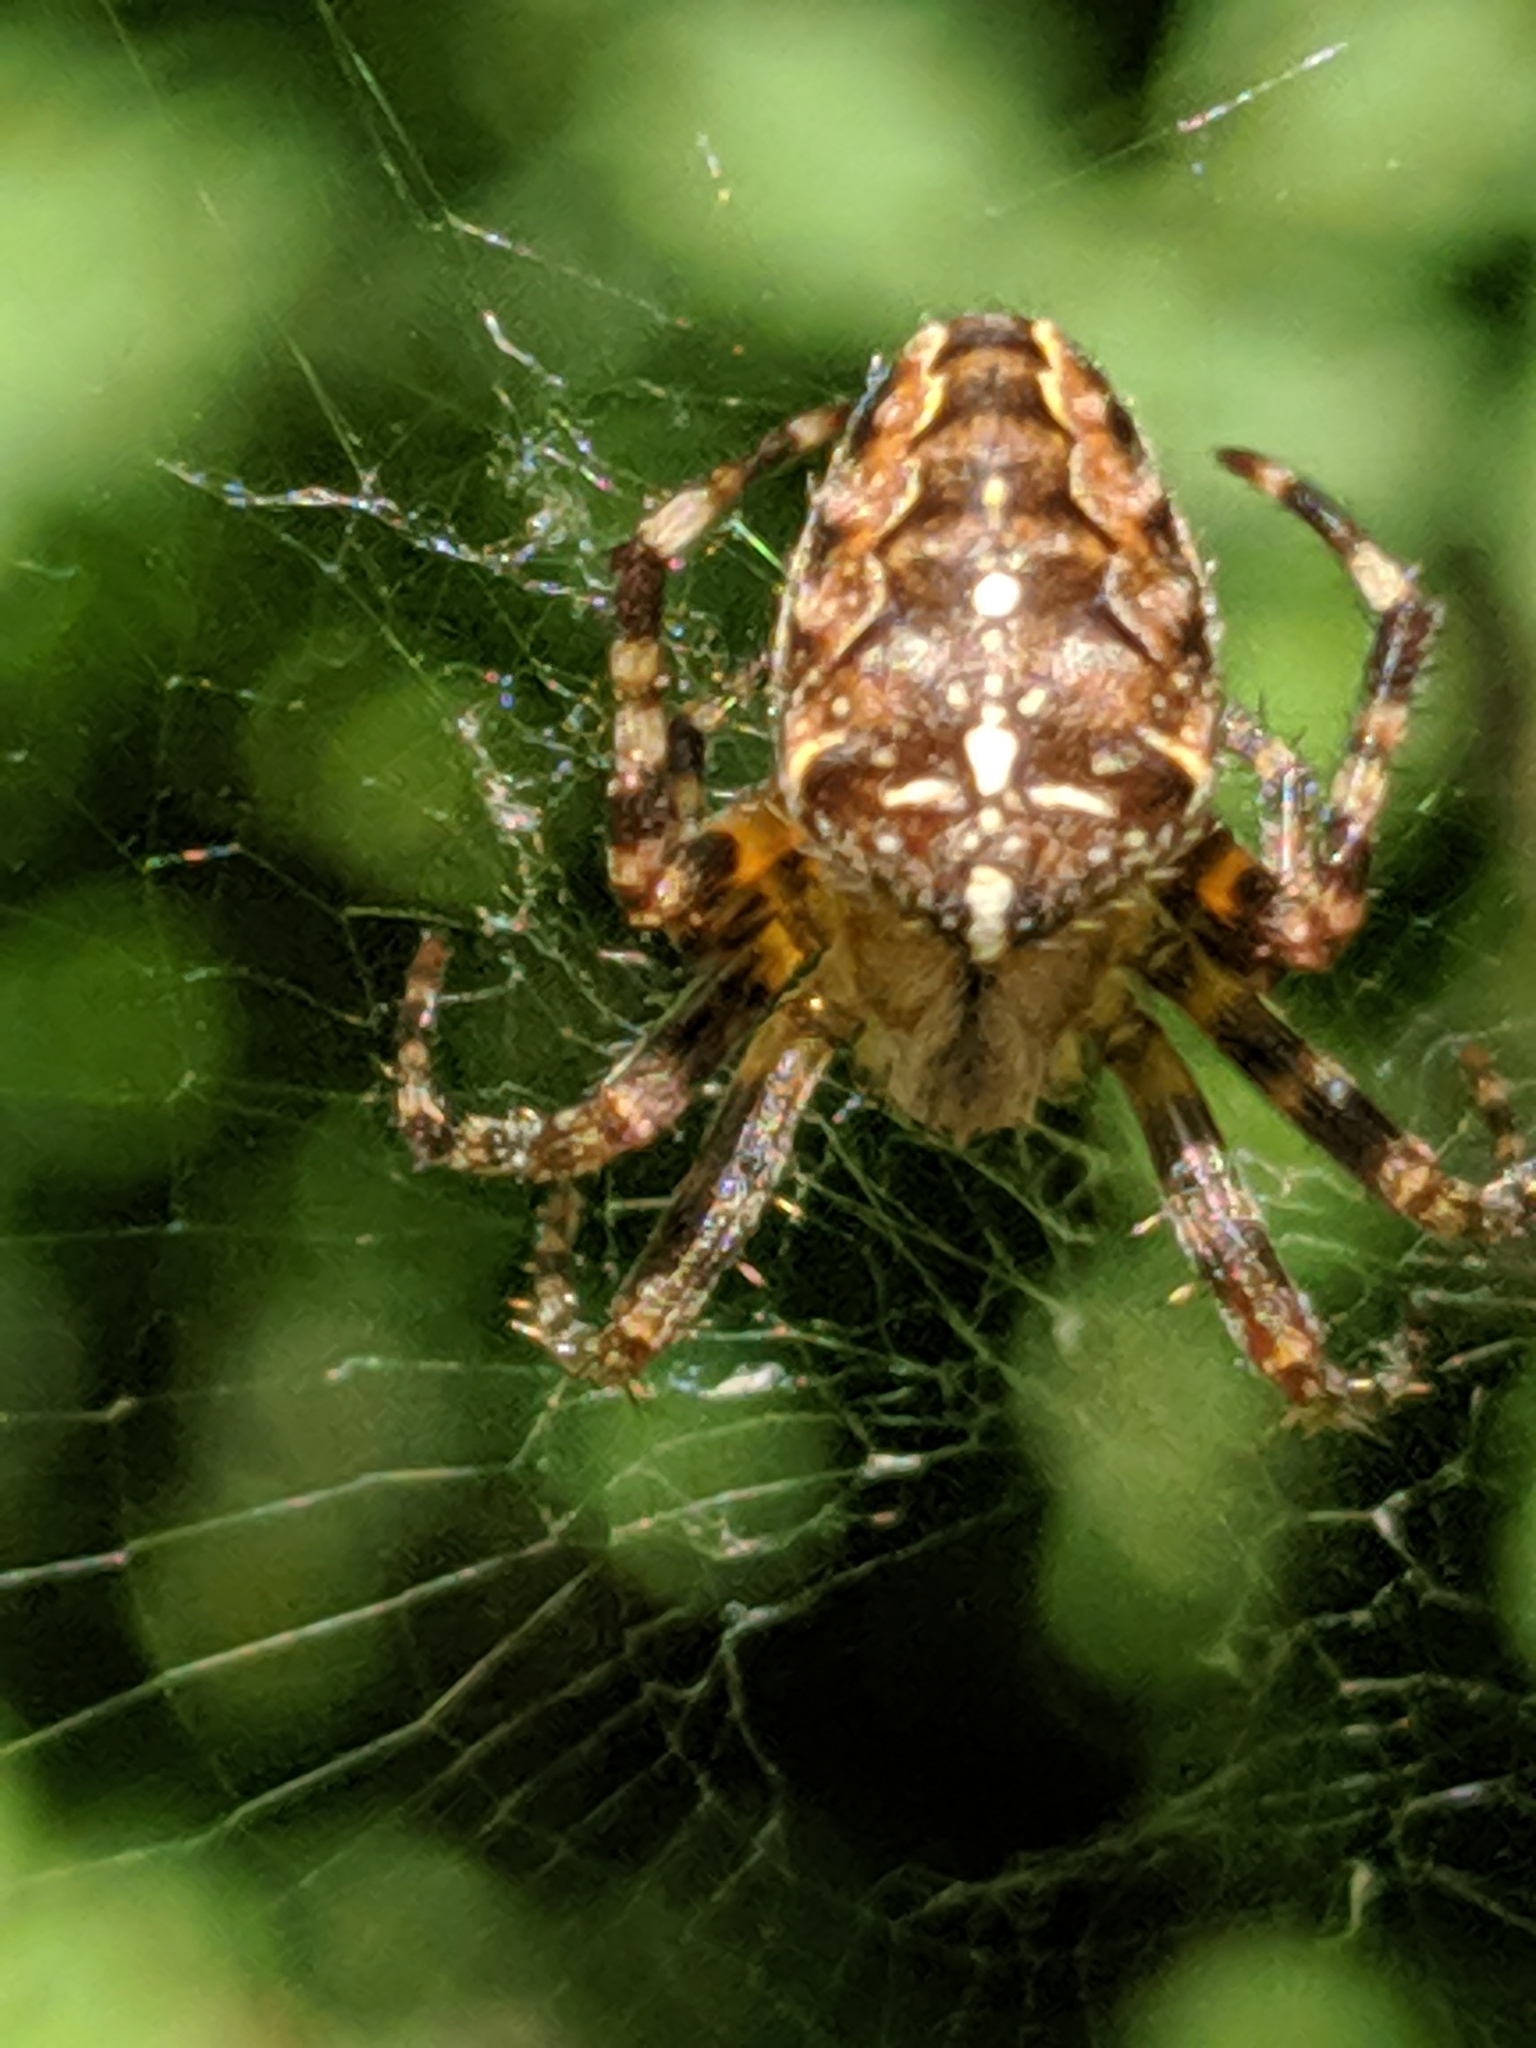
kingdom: Animalia
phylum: Arthropoda
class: Arachnida
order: Araneae
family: Araneidae
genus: Araneus
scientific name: Araneus diadematus
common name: Cross orbweaver
